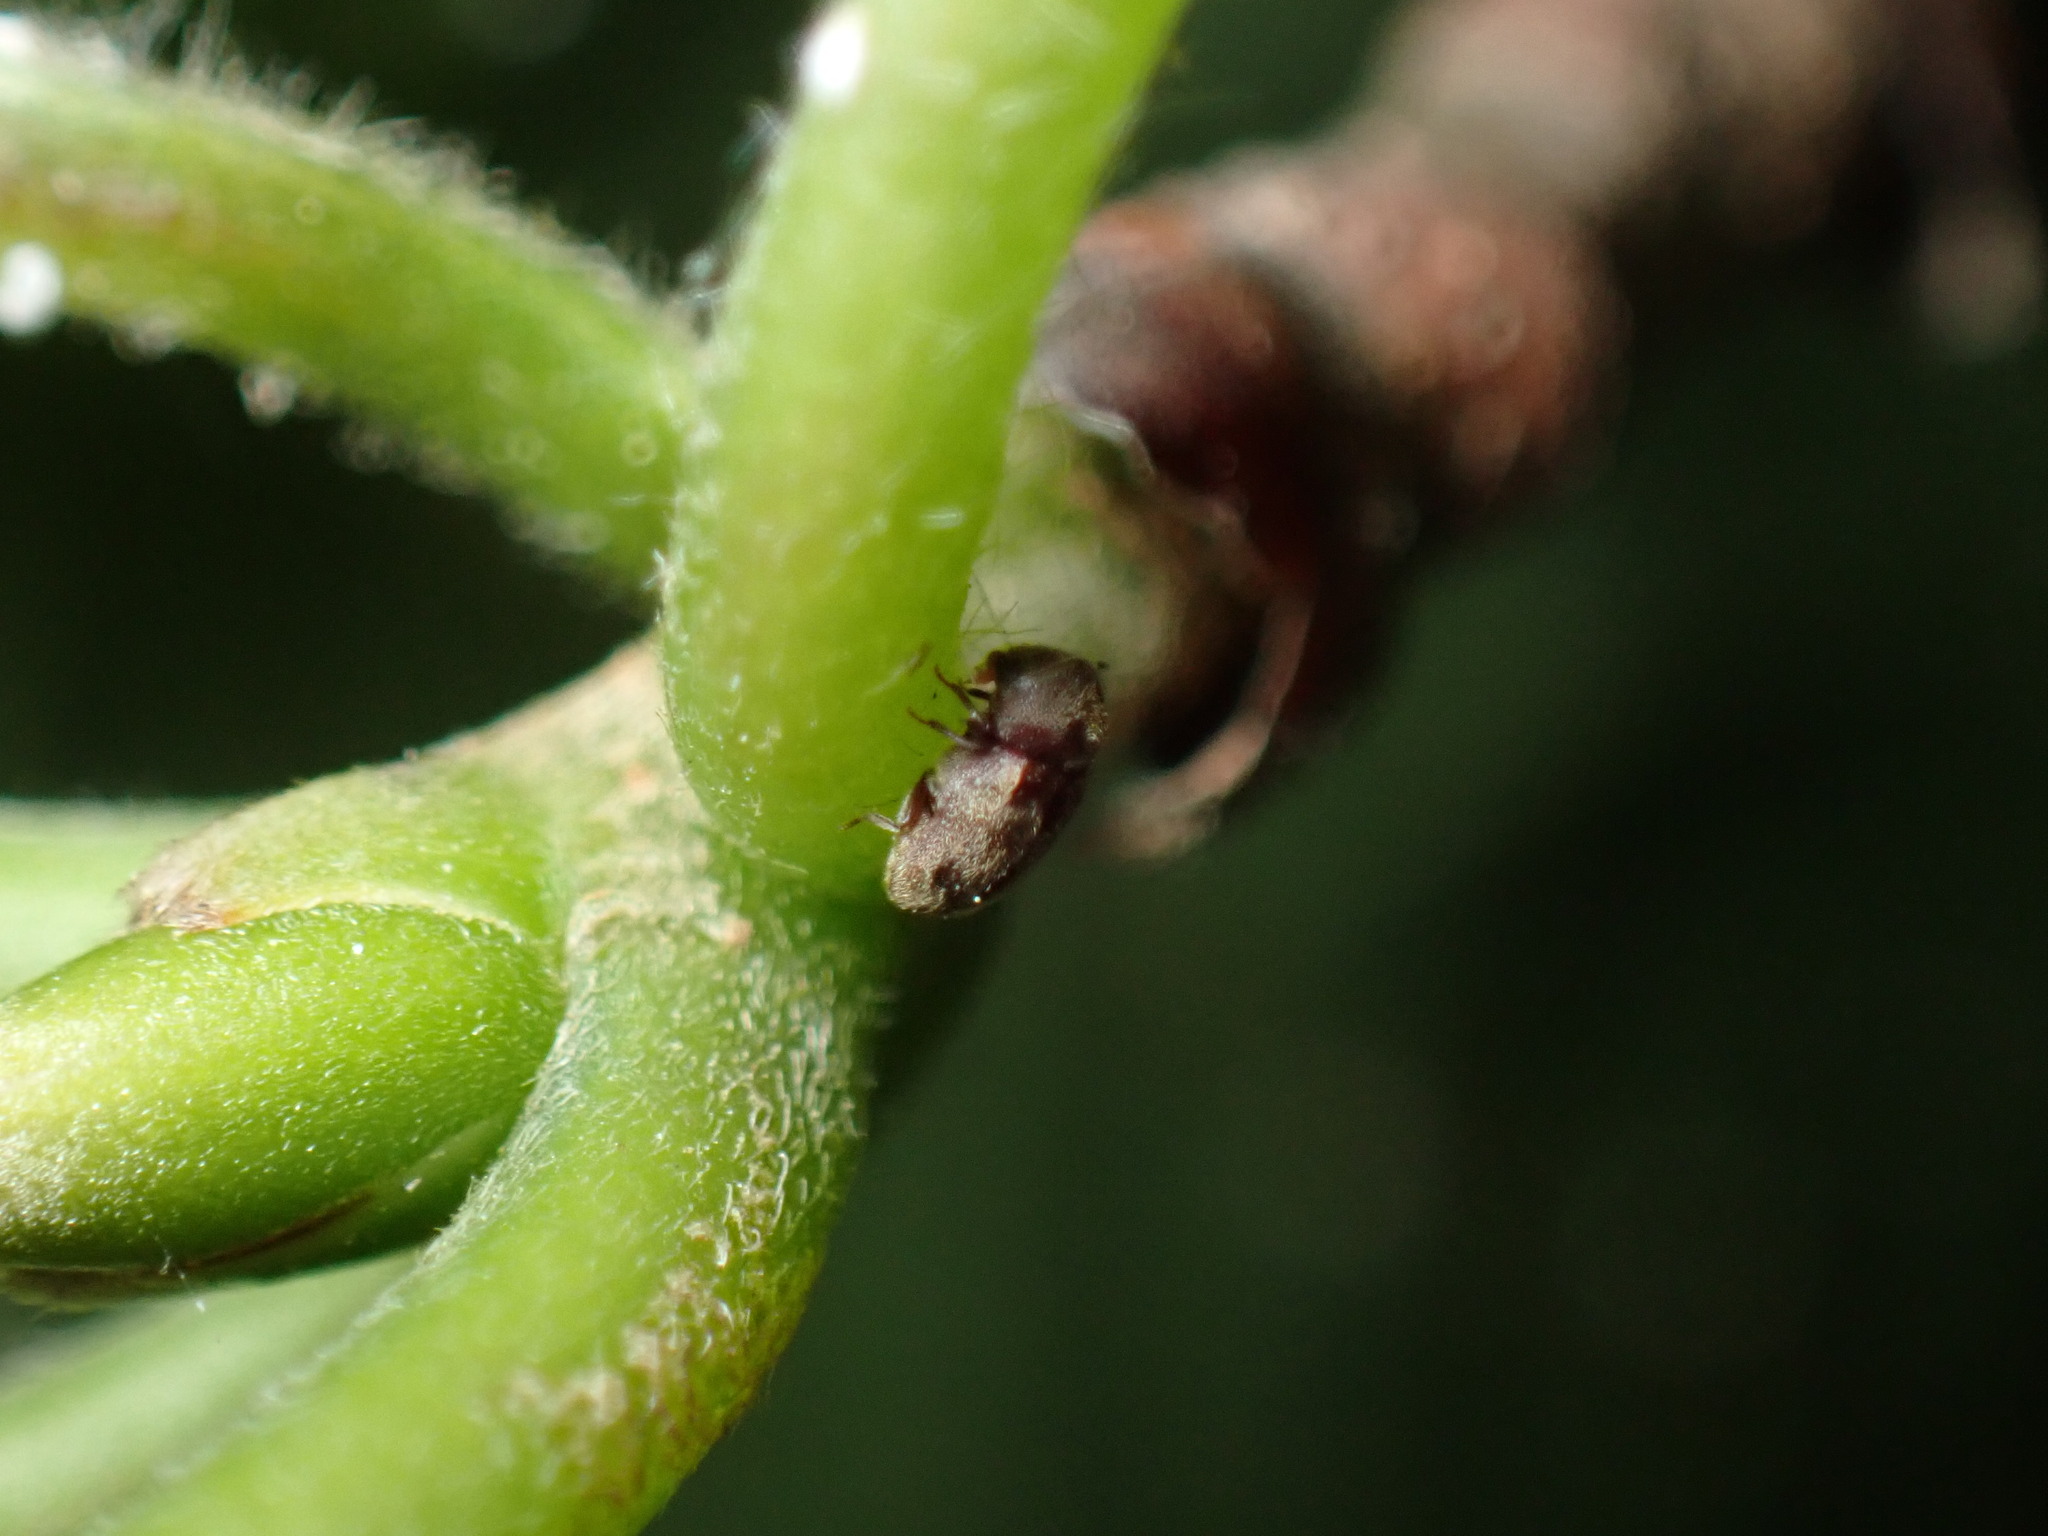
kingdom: Animalia
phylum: Arthropoda
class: Insecta
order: Coleoptera
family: Anobiidae
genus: Protheca
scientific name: Protheca hispida
